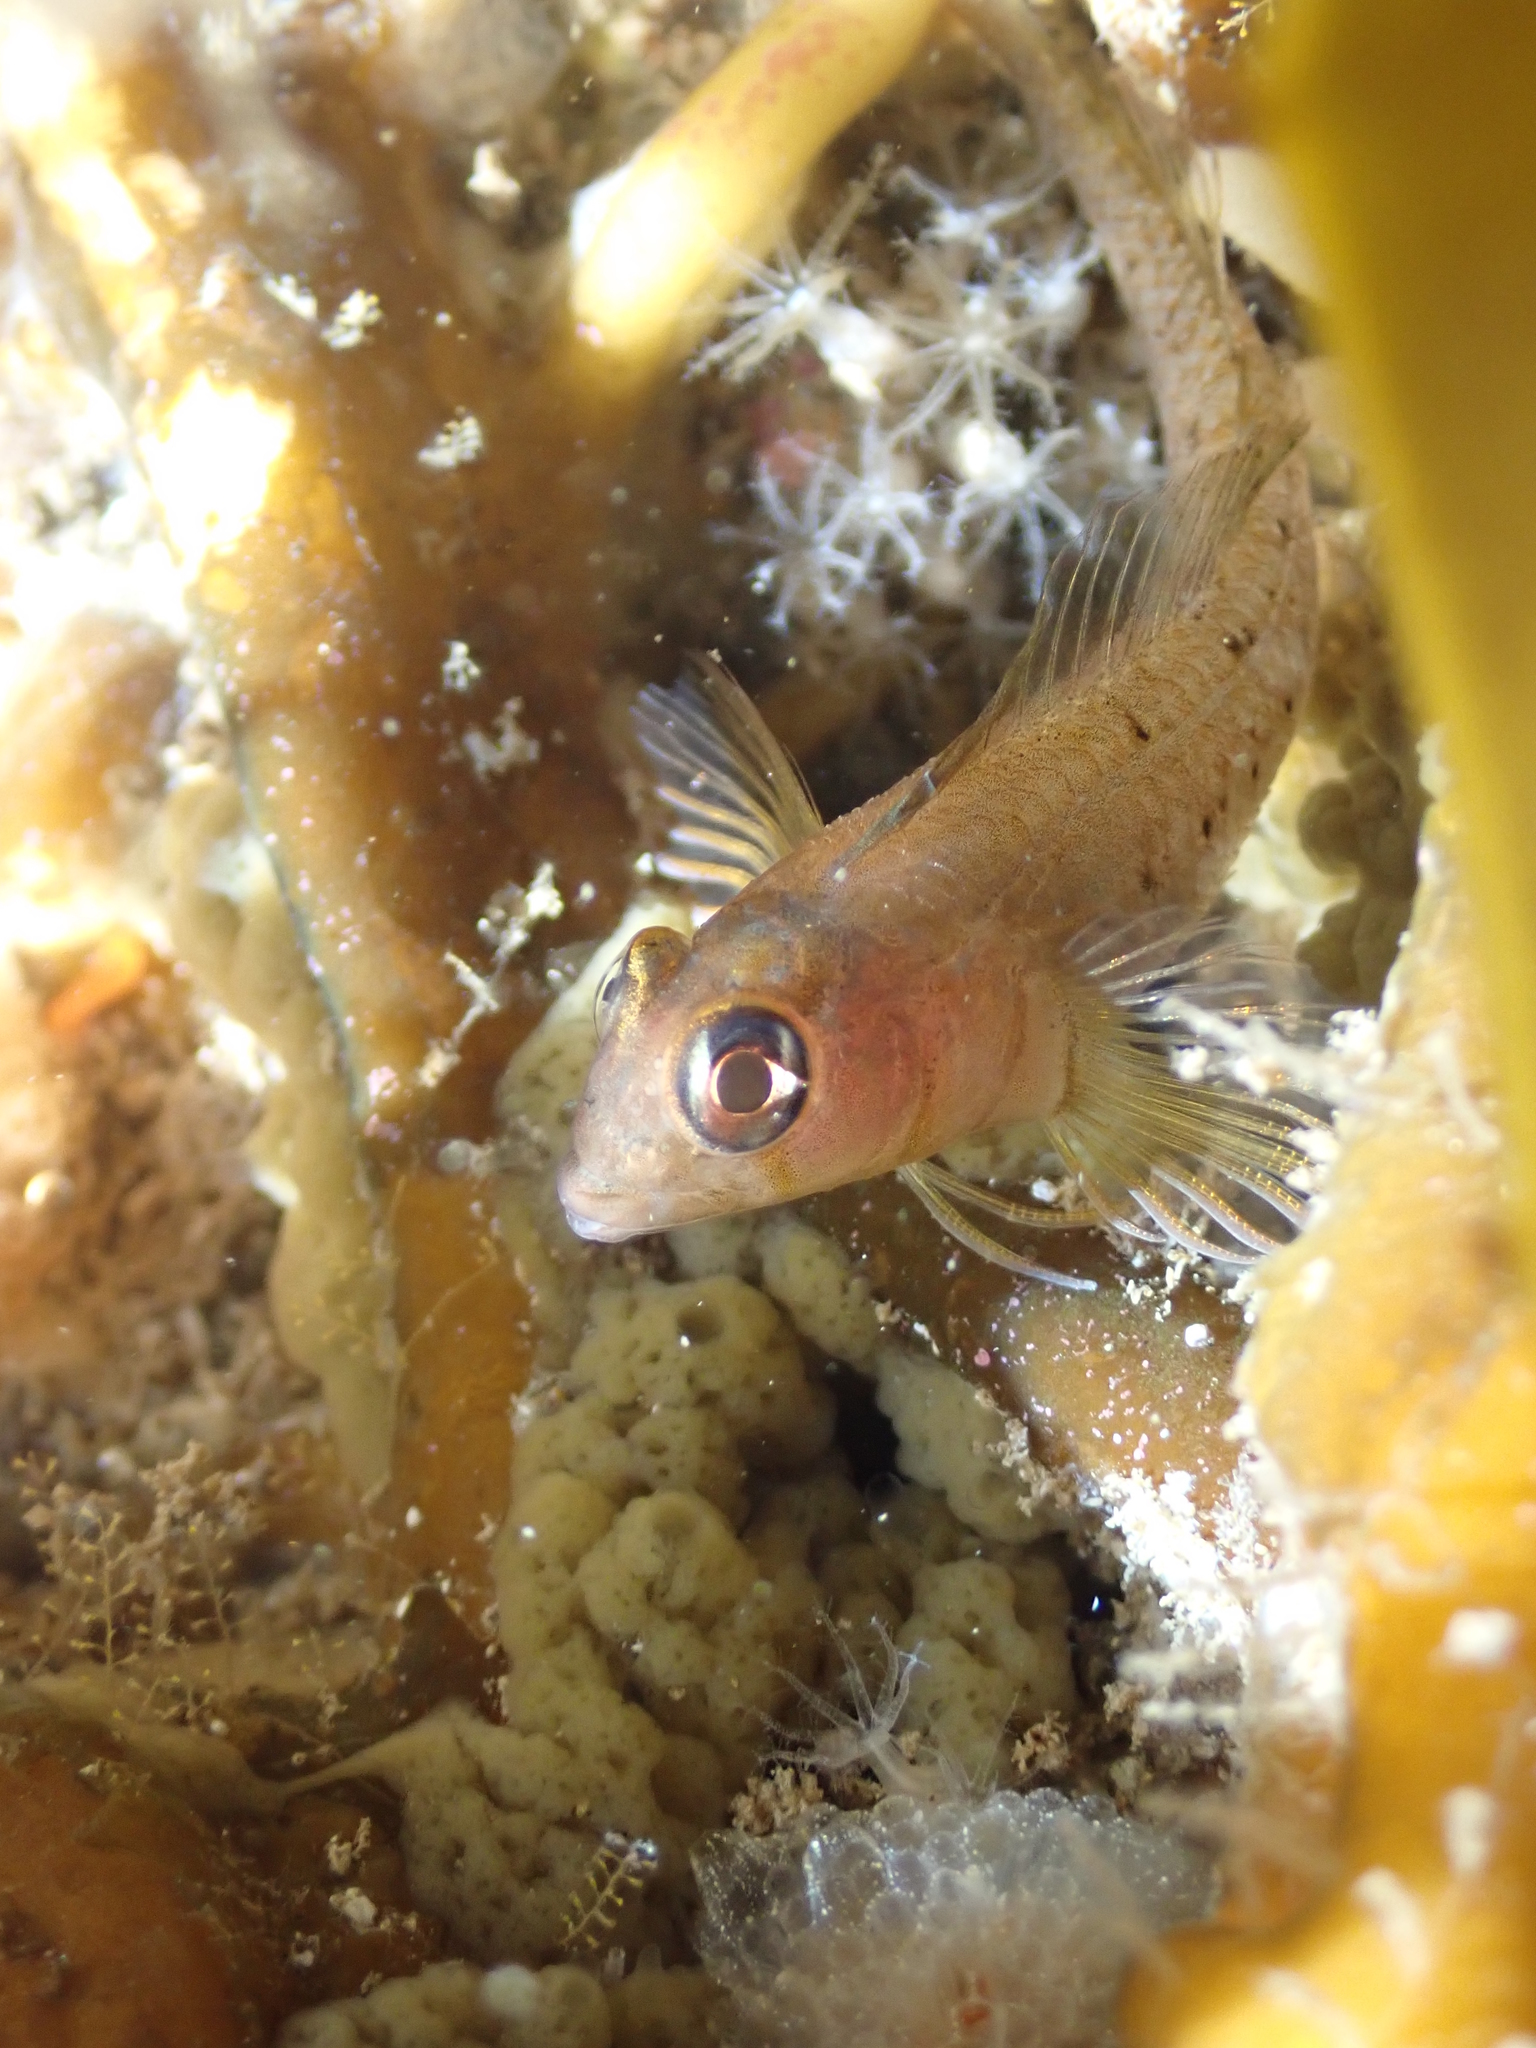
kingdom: Animalia
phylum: Chordata
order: Perciformes
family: Tripterygiidae
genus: Notoclinops
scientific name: Notoclinops yaldwyni
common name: Yaldwyn's triplefin
